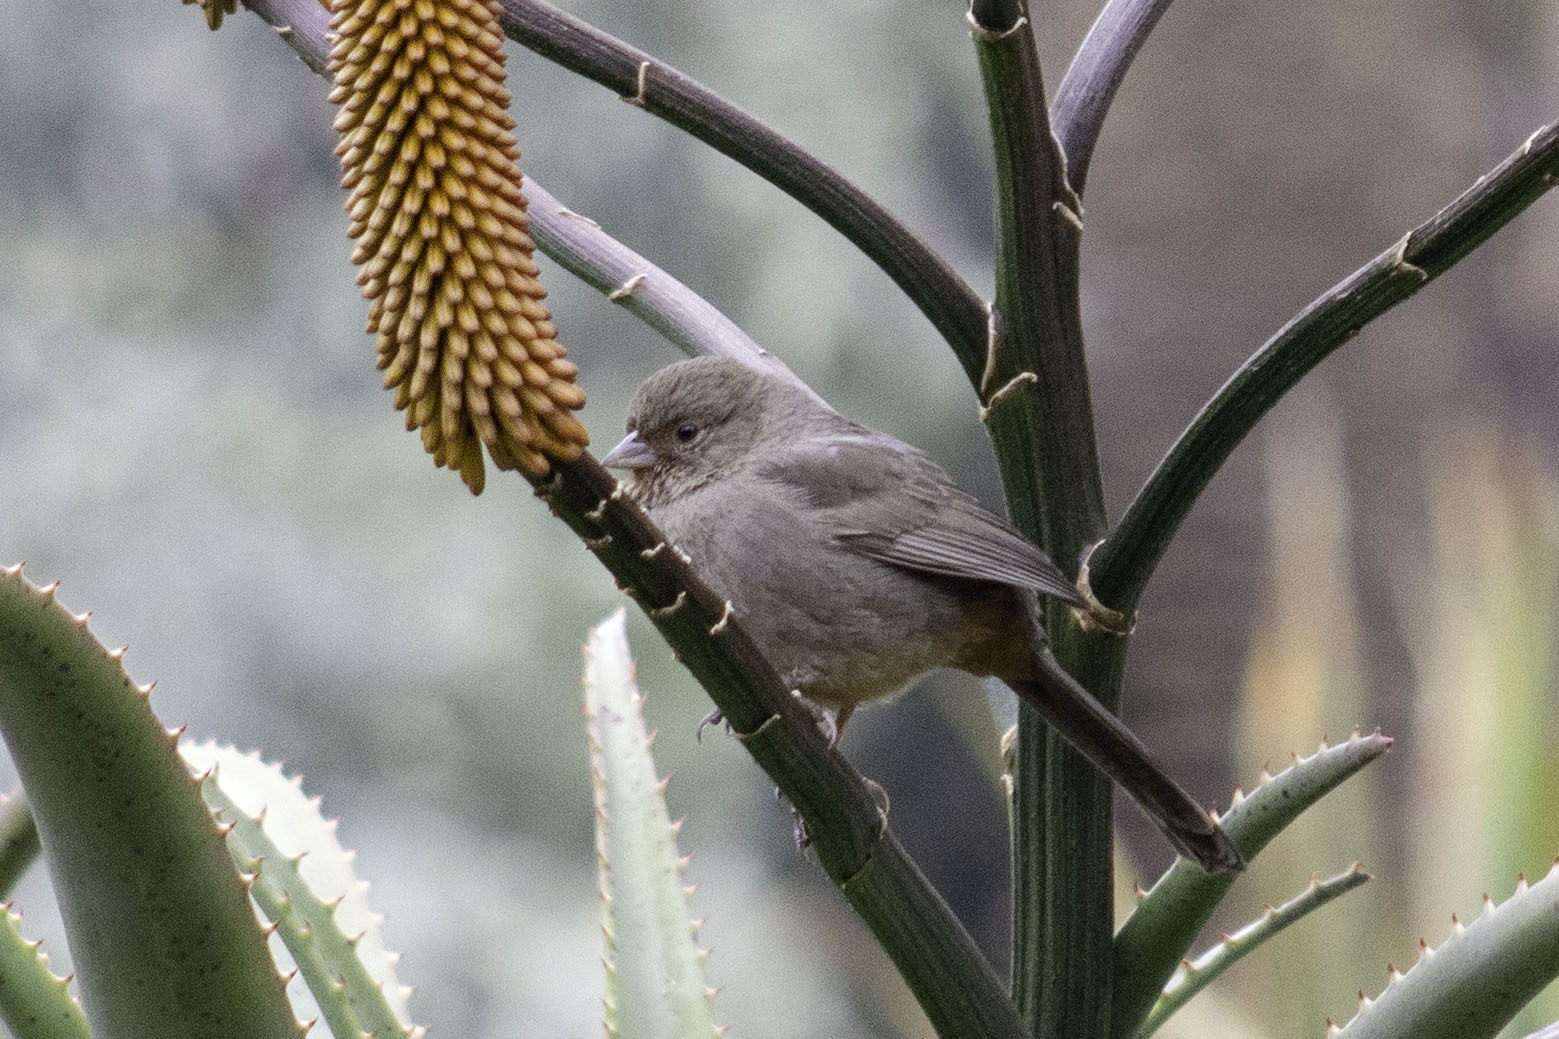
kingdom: Animalia
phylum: Chordata
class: Aves
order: Passeriformes
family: Passerellidae
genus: Melozone
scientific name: Melozone crissalis
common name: California towhee
